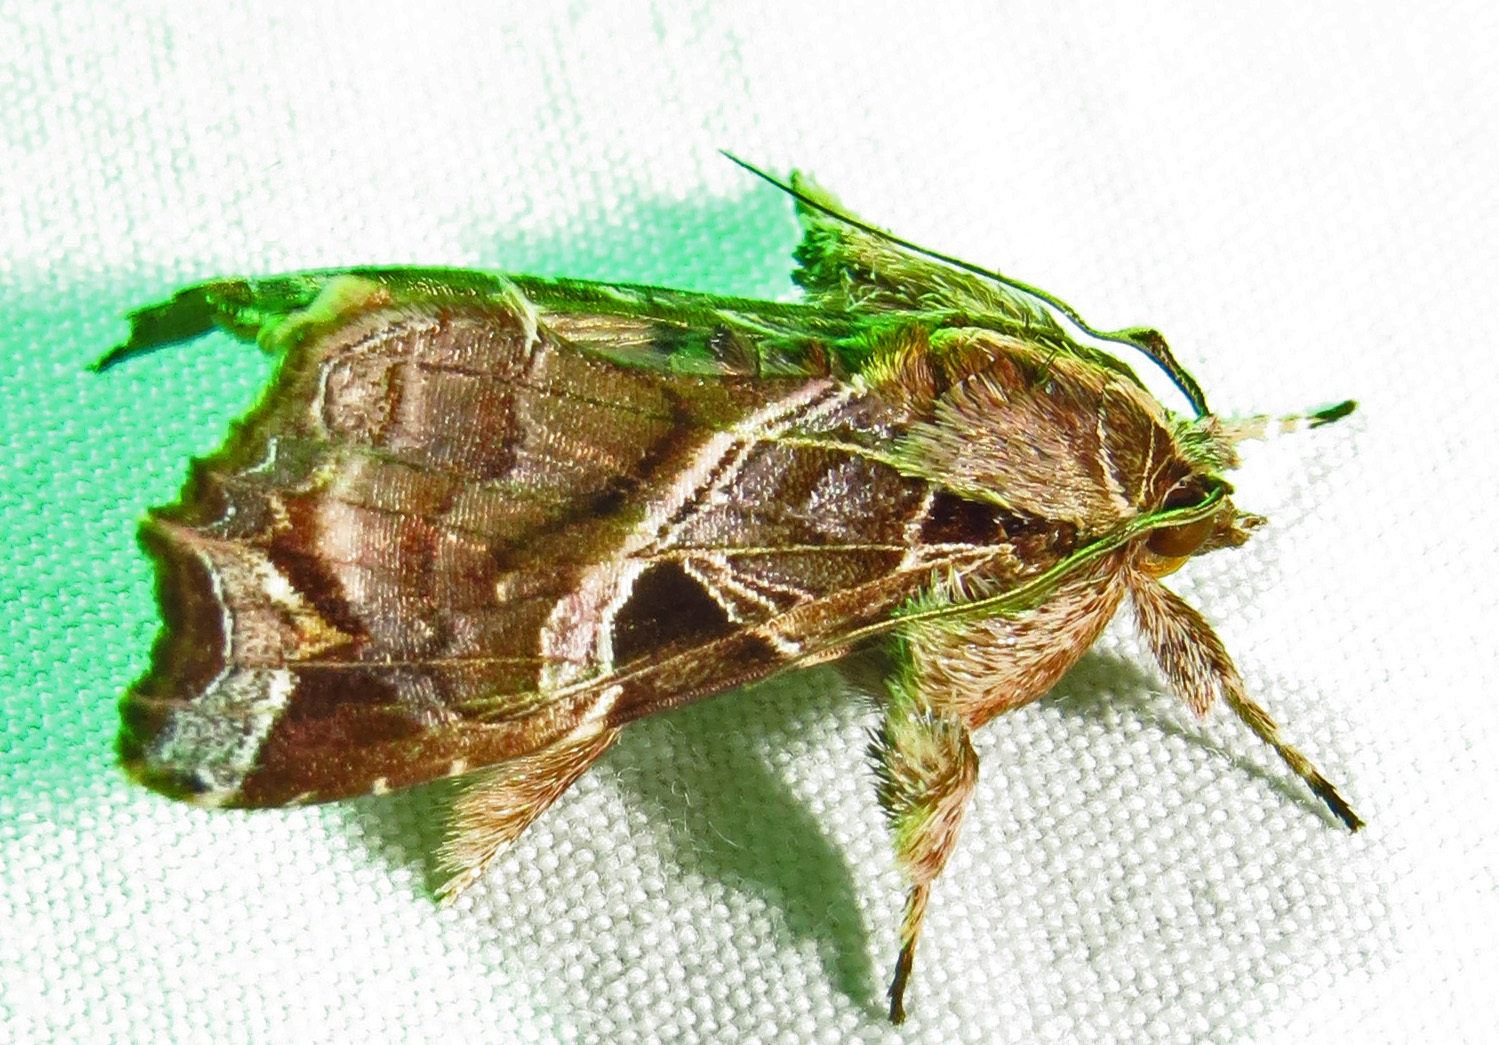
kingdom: Animalia
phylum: Arthropoda
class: Insecta
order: Lepidoptera
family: Noctuidae
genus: Callopistria
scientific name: Callopistria floridensis
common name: Florida fern moth
